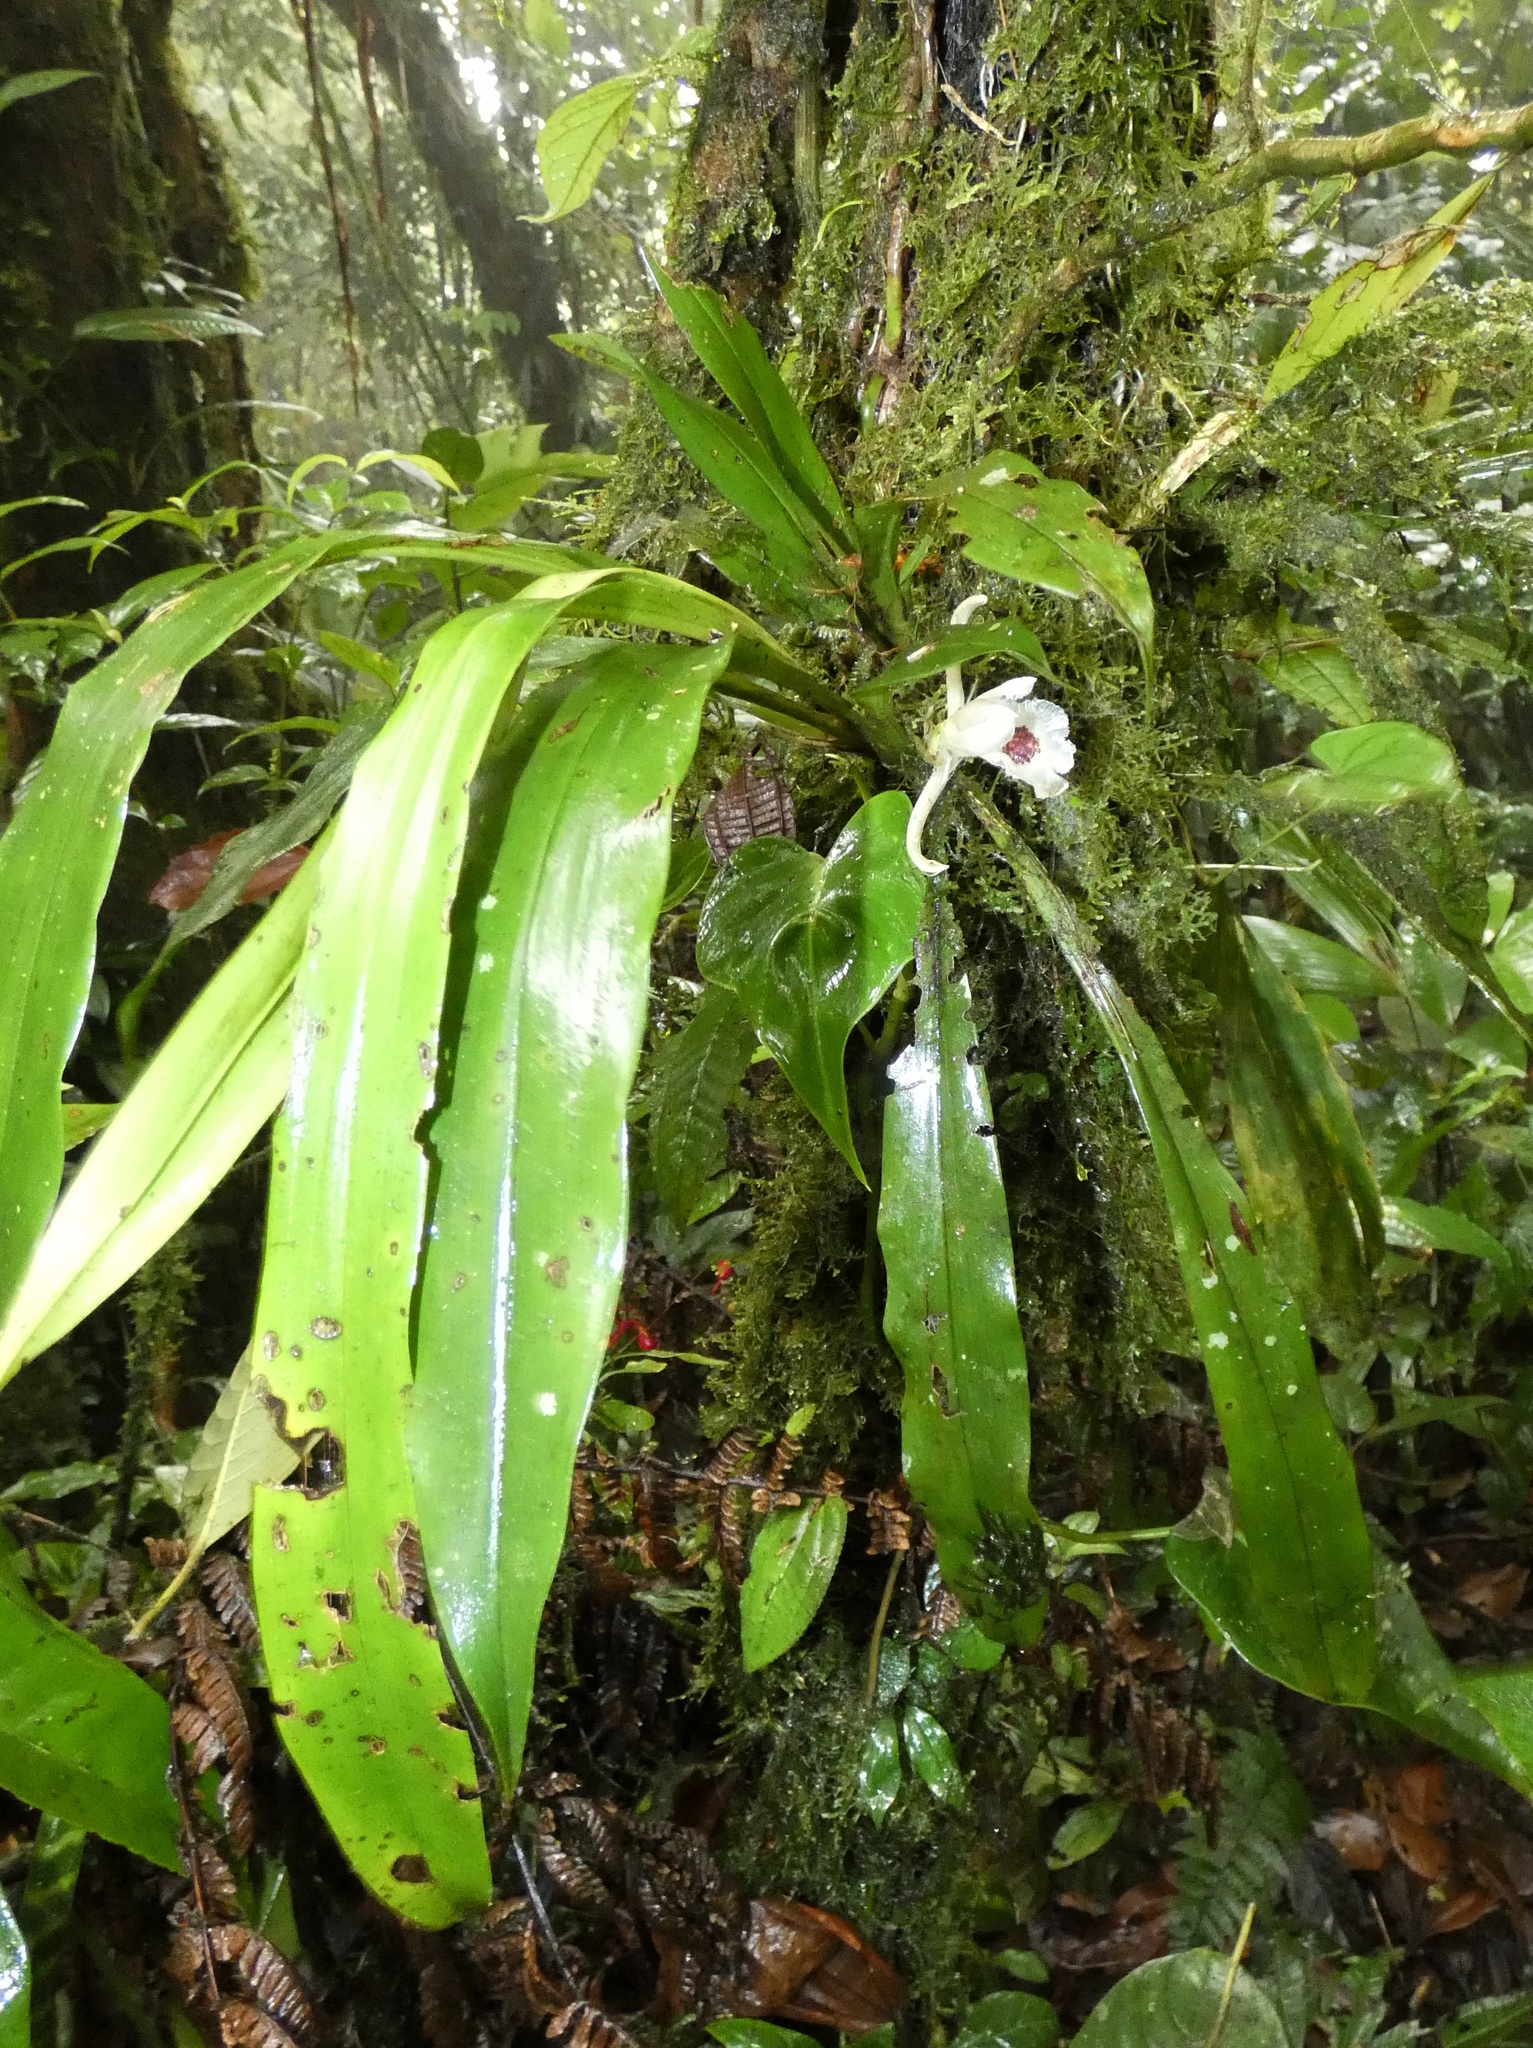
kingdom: Plantae
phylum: Tracheophyta
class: Liliopsida
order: Asparagales
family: Orchidaceae
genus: Chondroscaphe
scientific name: Chondroscaphe atrilinguis
